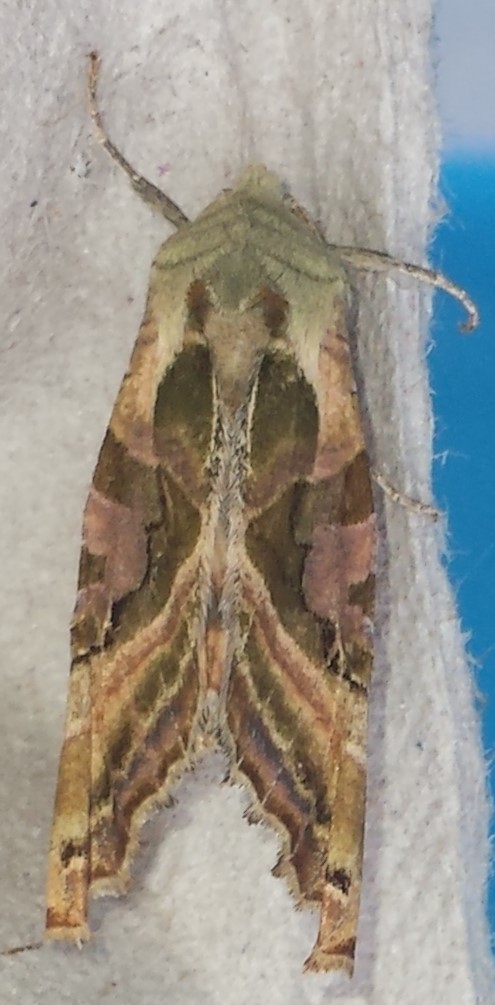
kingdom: Animalia
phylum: Arthropoda
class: Insecta
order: Lepidoptera
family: Noctuidae
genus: Phlogophora
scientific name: Phlogophora iris
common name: Olive angle shades
